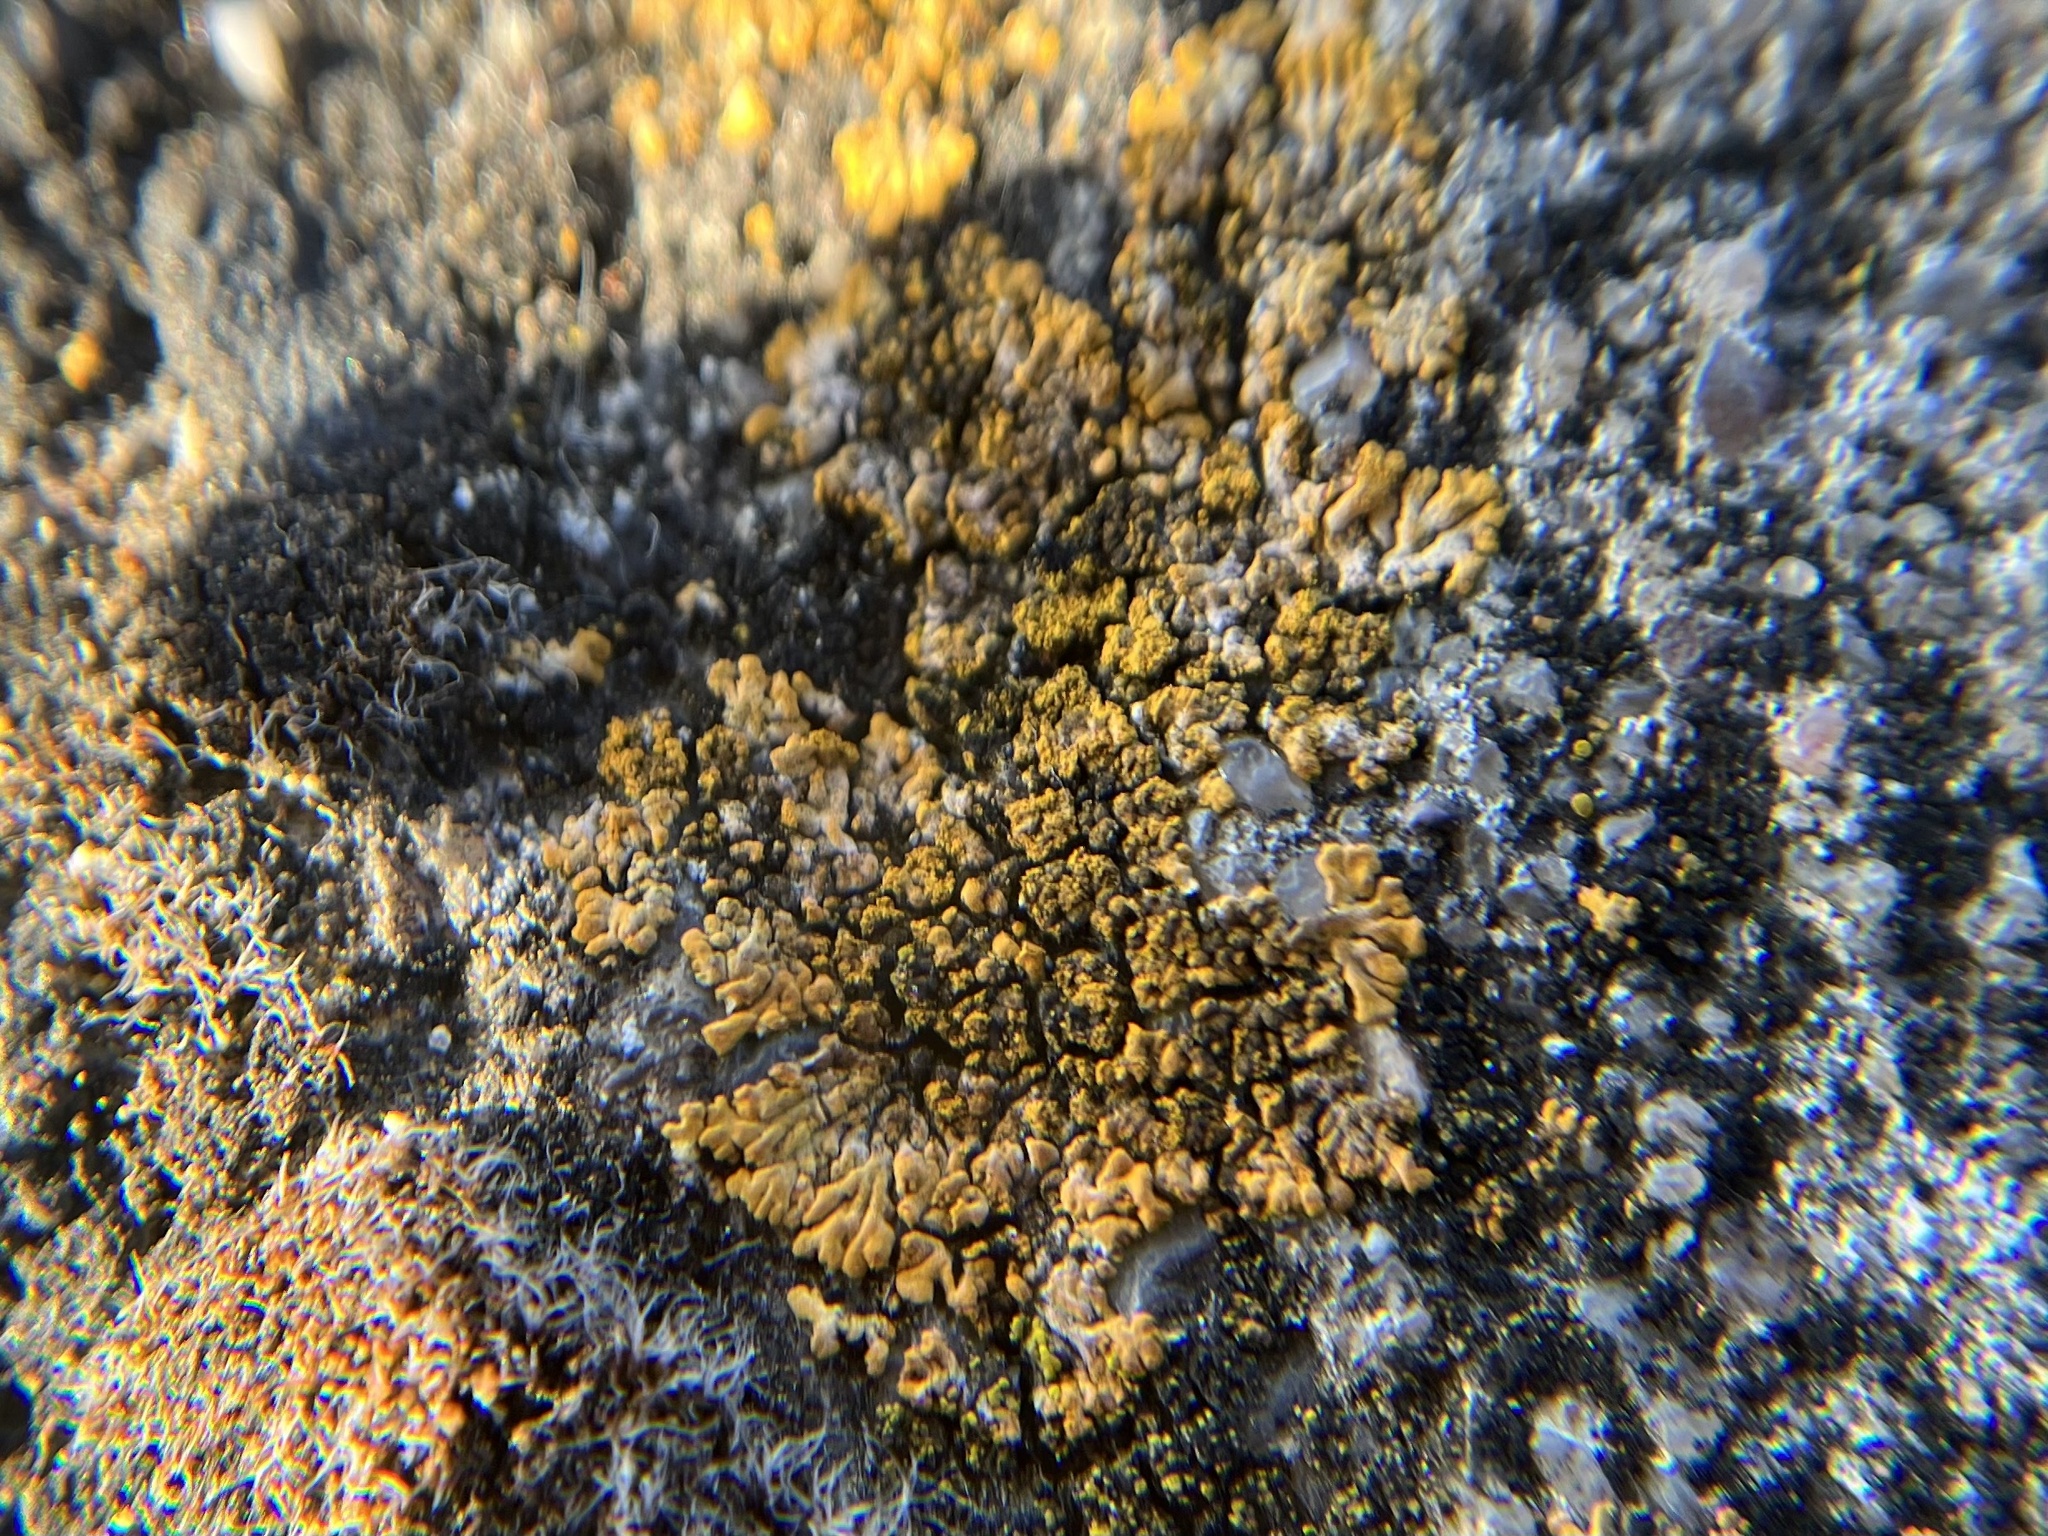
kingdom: Fungi
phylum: Ascomycota
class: Lecanoromycetes
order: Teloschistales
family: Teloschistaceae
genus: Calogaya
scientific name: Calogaya decipiens
